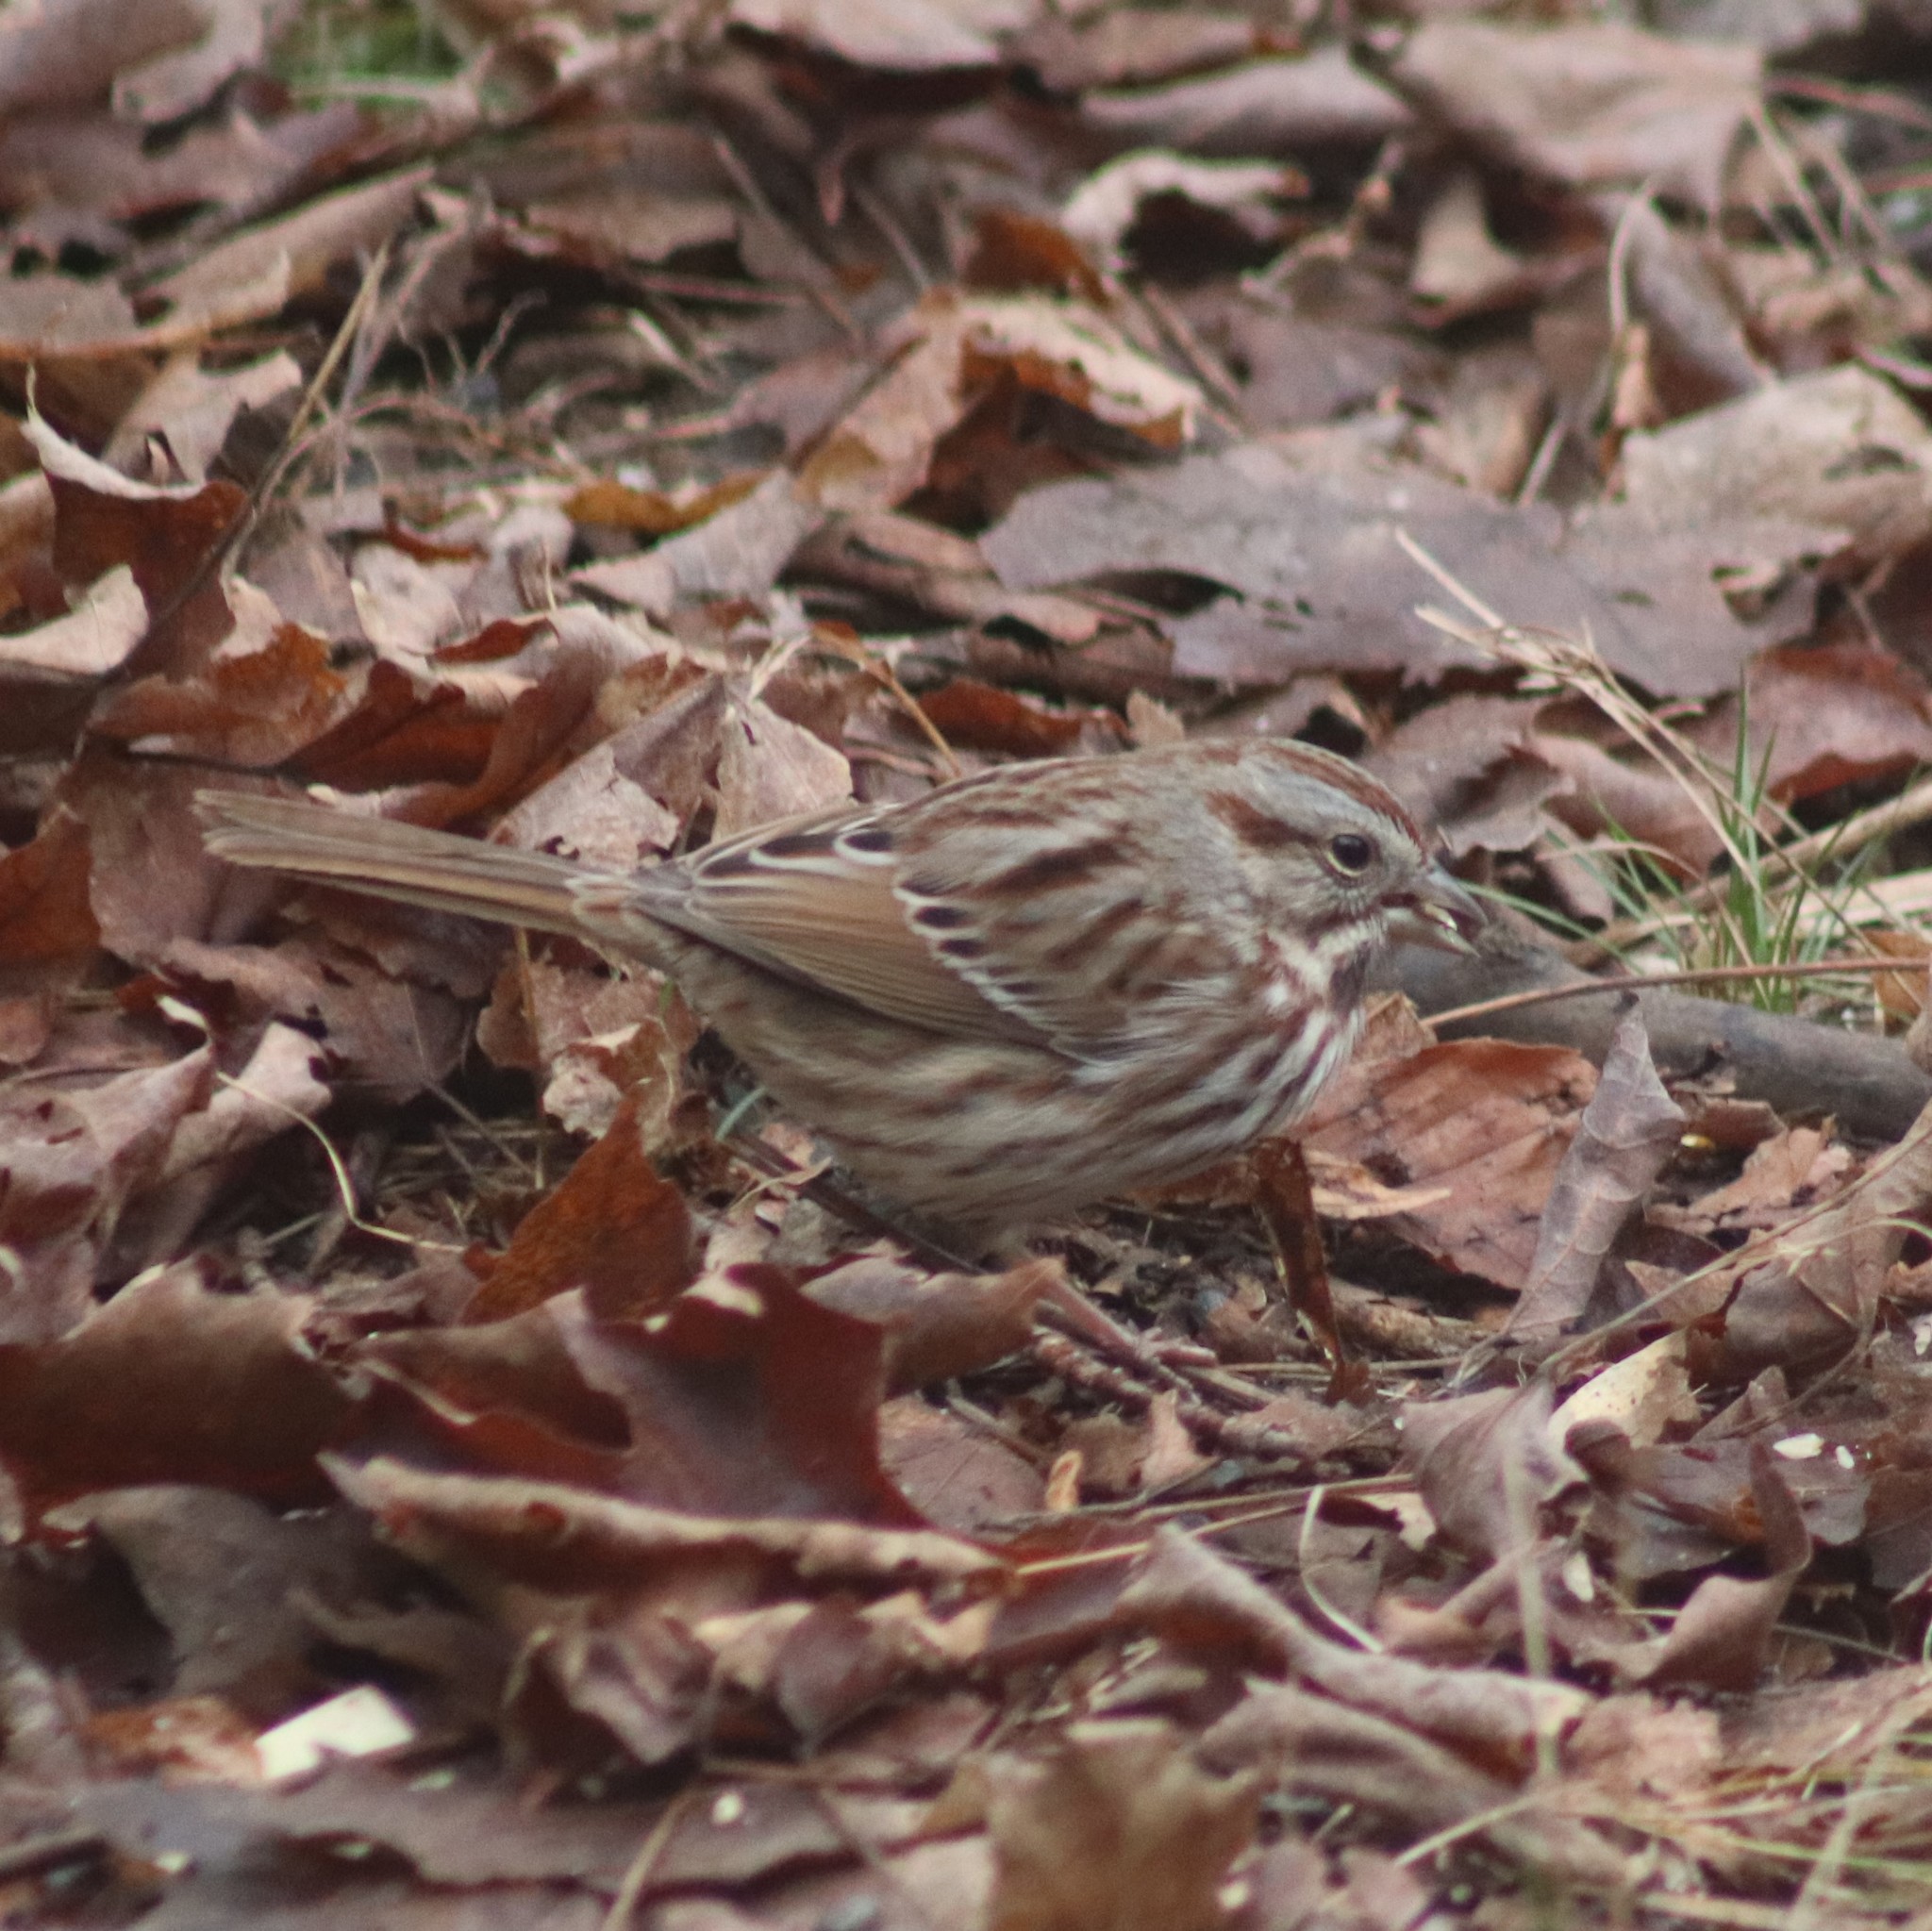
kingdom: Animalia
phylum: Chordata
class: Aves
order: Passeriformes
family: Passerellidae
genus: Melospiza
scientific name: Melospiza melodia
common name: Song sparrow
